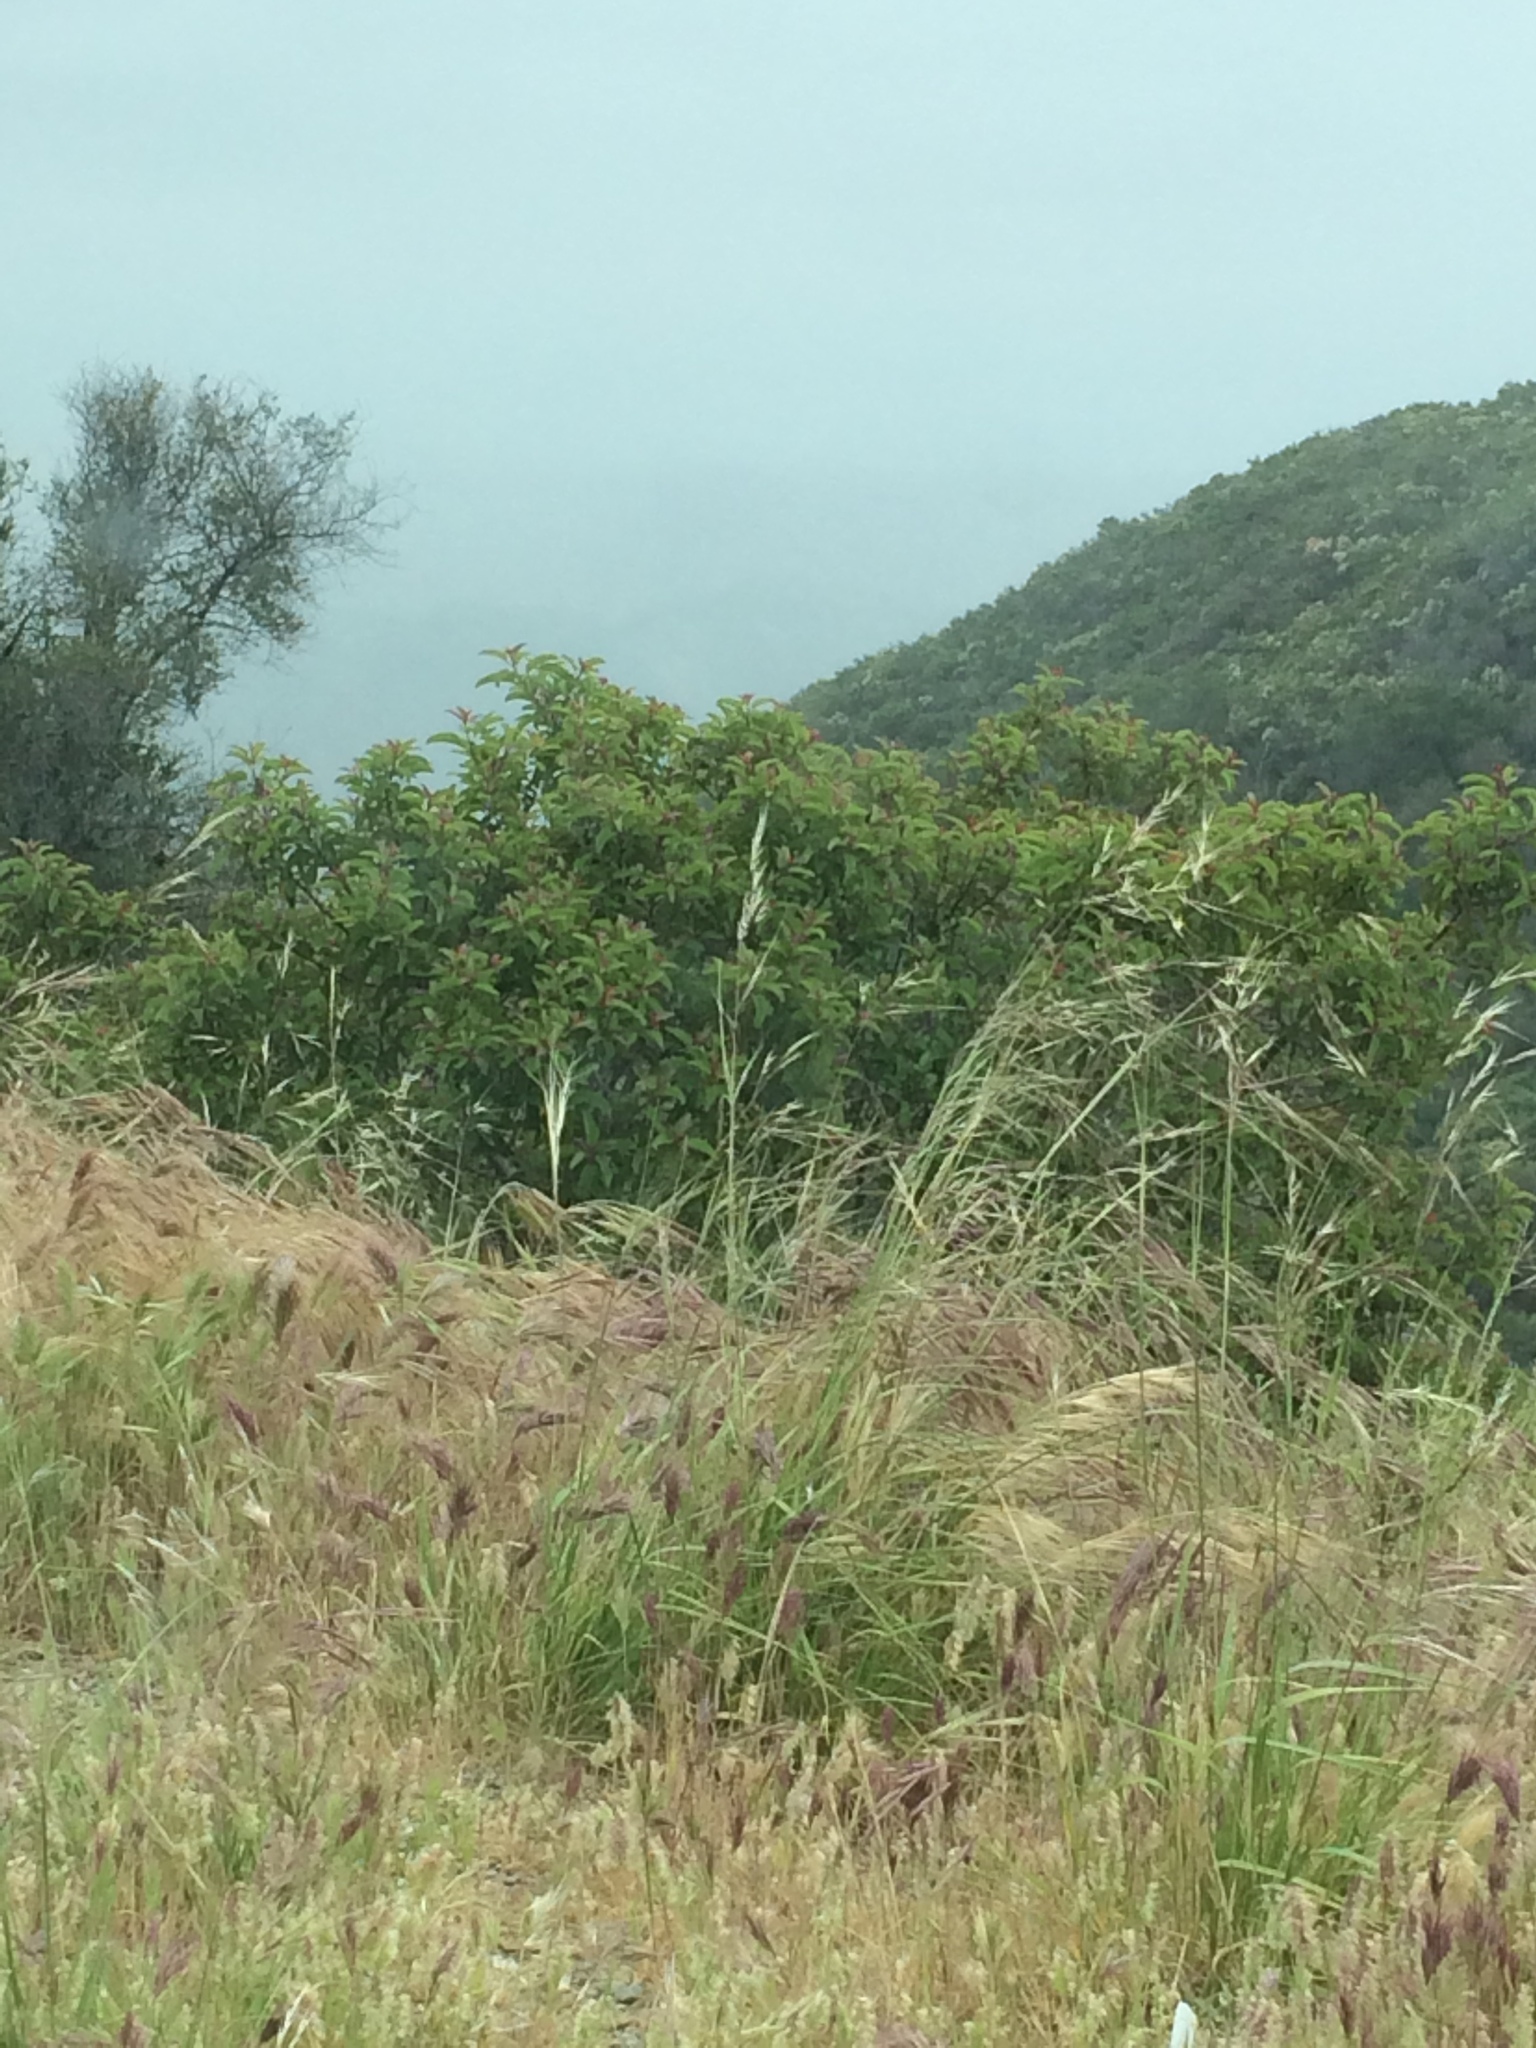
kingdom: Plantae
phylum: Tracheophyta
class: Magnoliopsida
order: Sapindales
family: Anacardiaceae
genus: Malosma
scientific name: Malosma laurina
